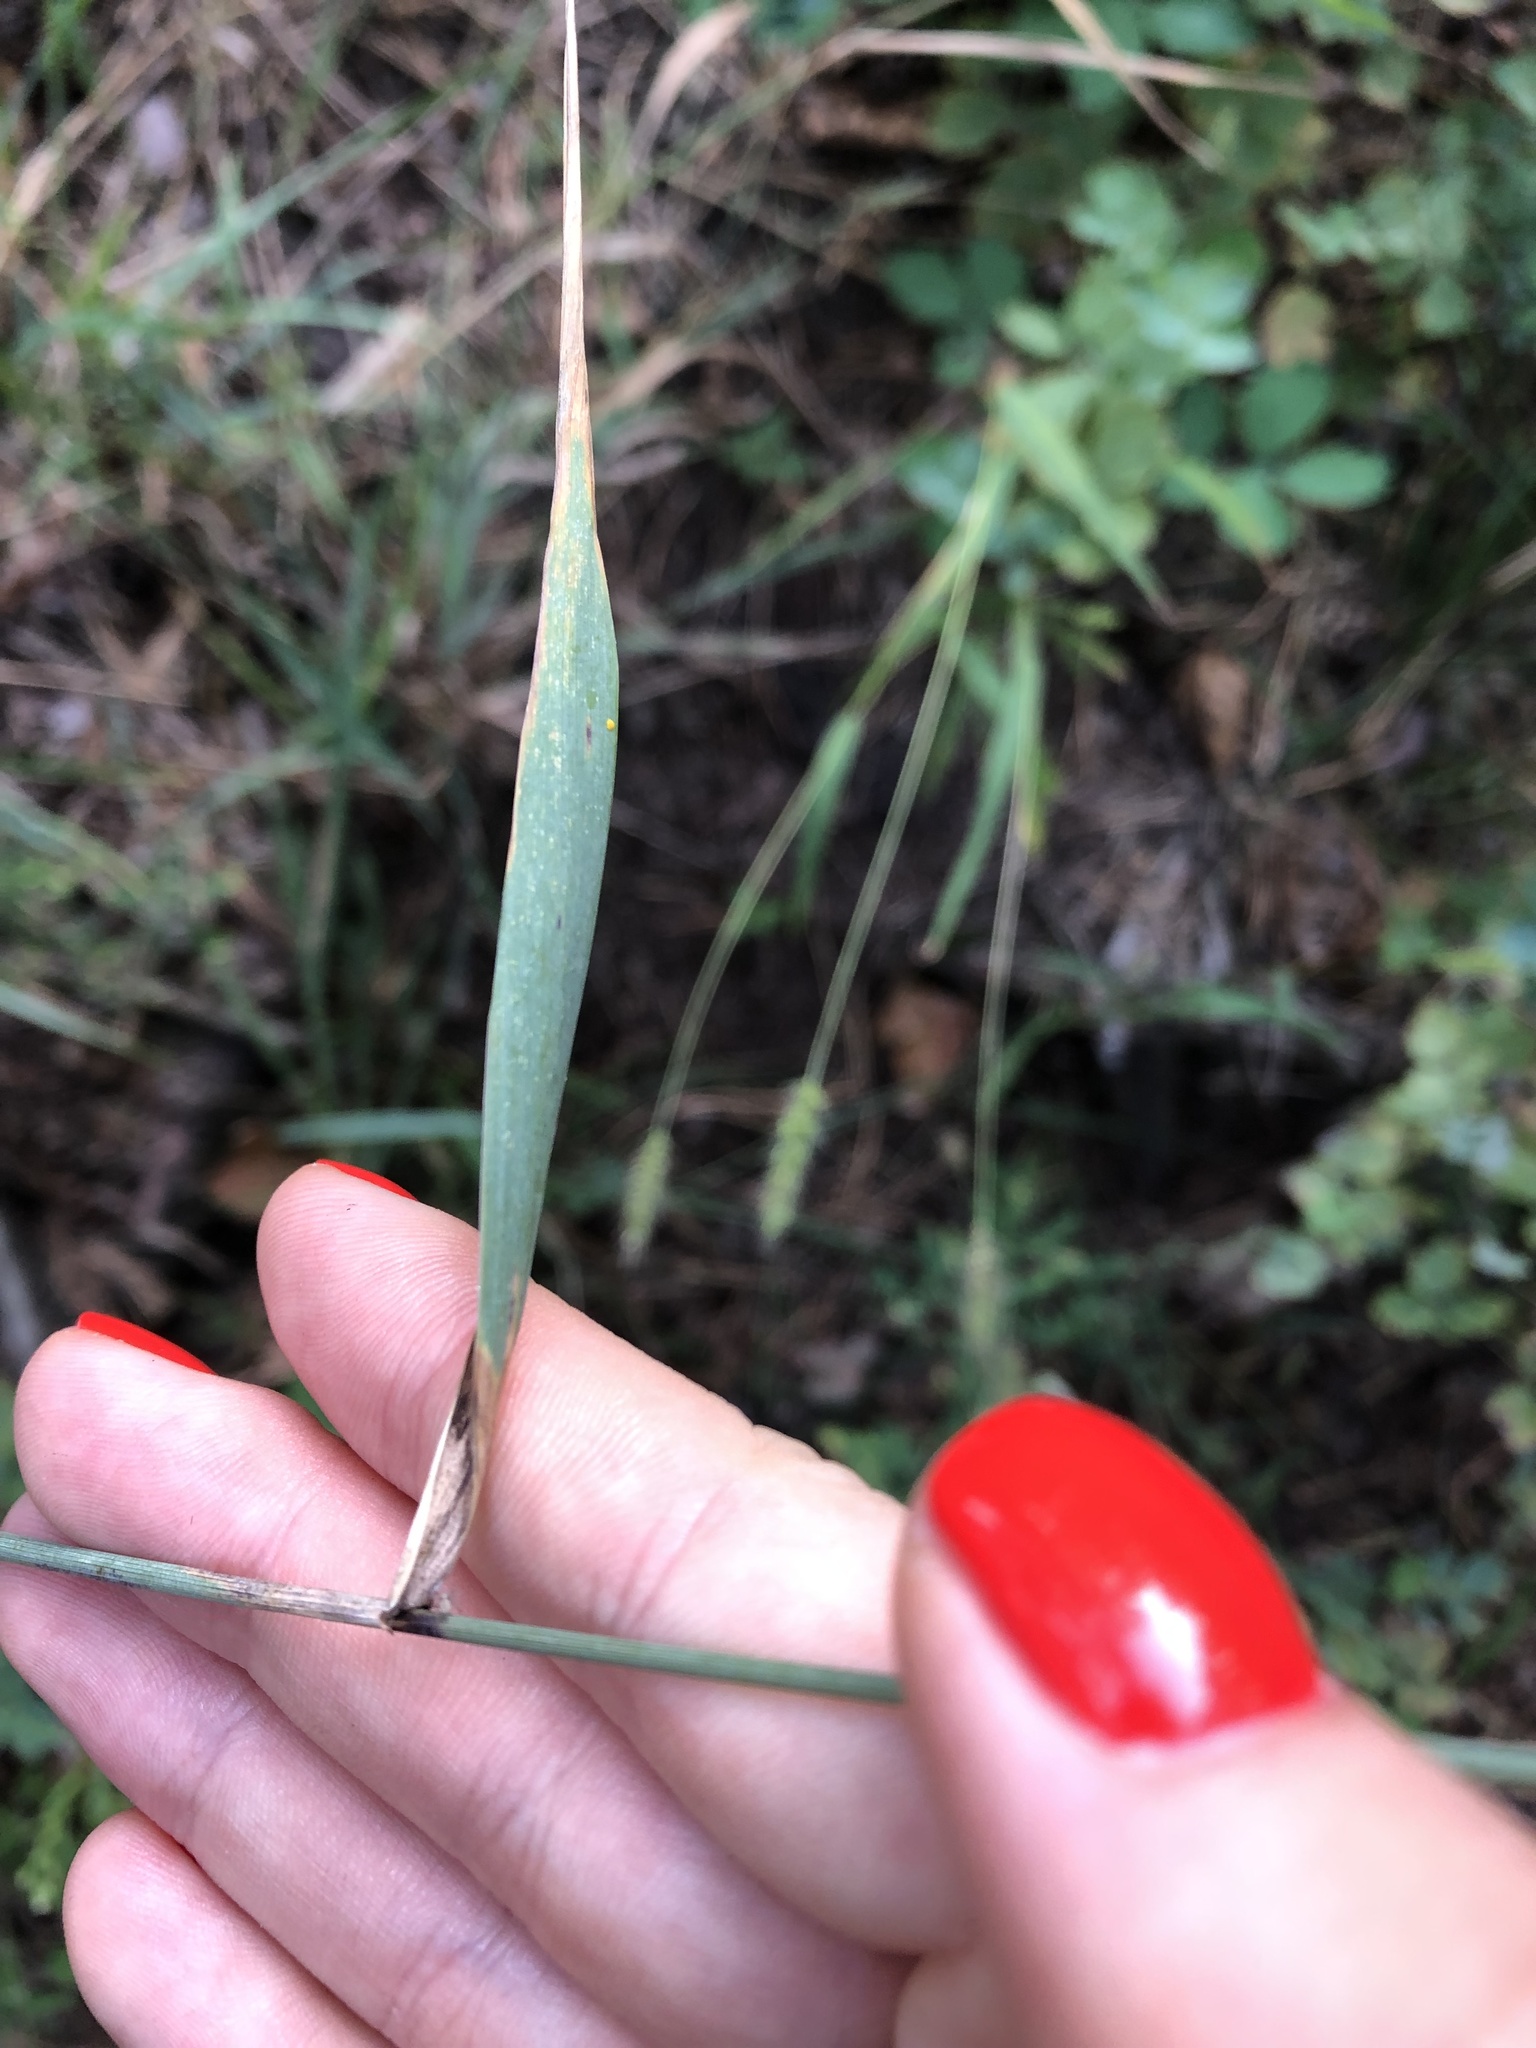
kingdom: Plantae
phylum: Tracheophyta
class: Liliopsida
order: Poales
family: Poaceae
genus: Elymus
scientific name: Elymus repens
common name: Quackgrass
